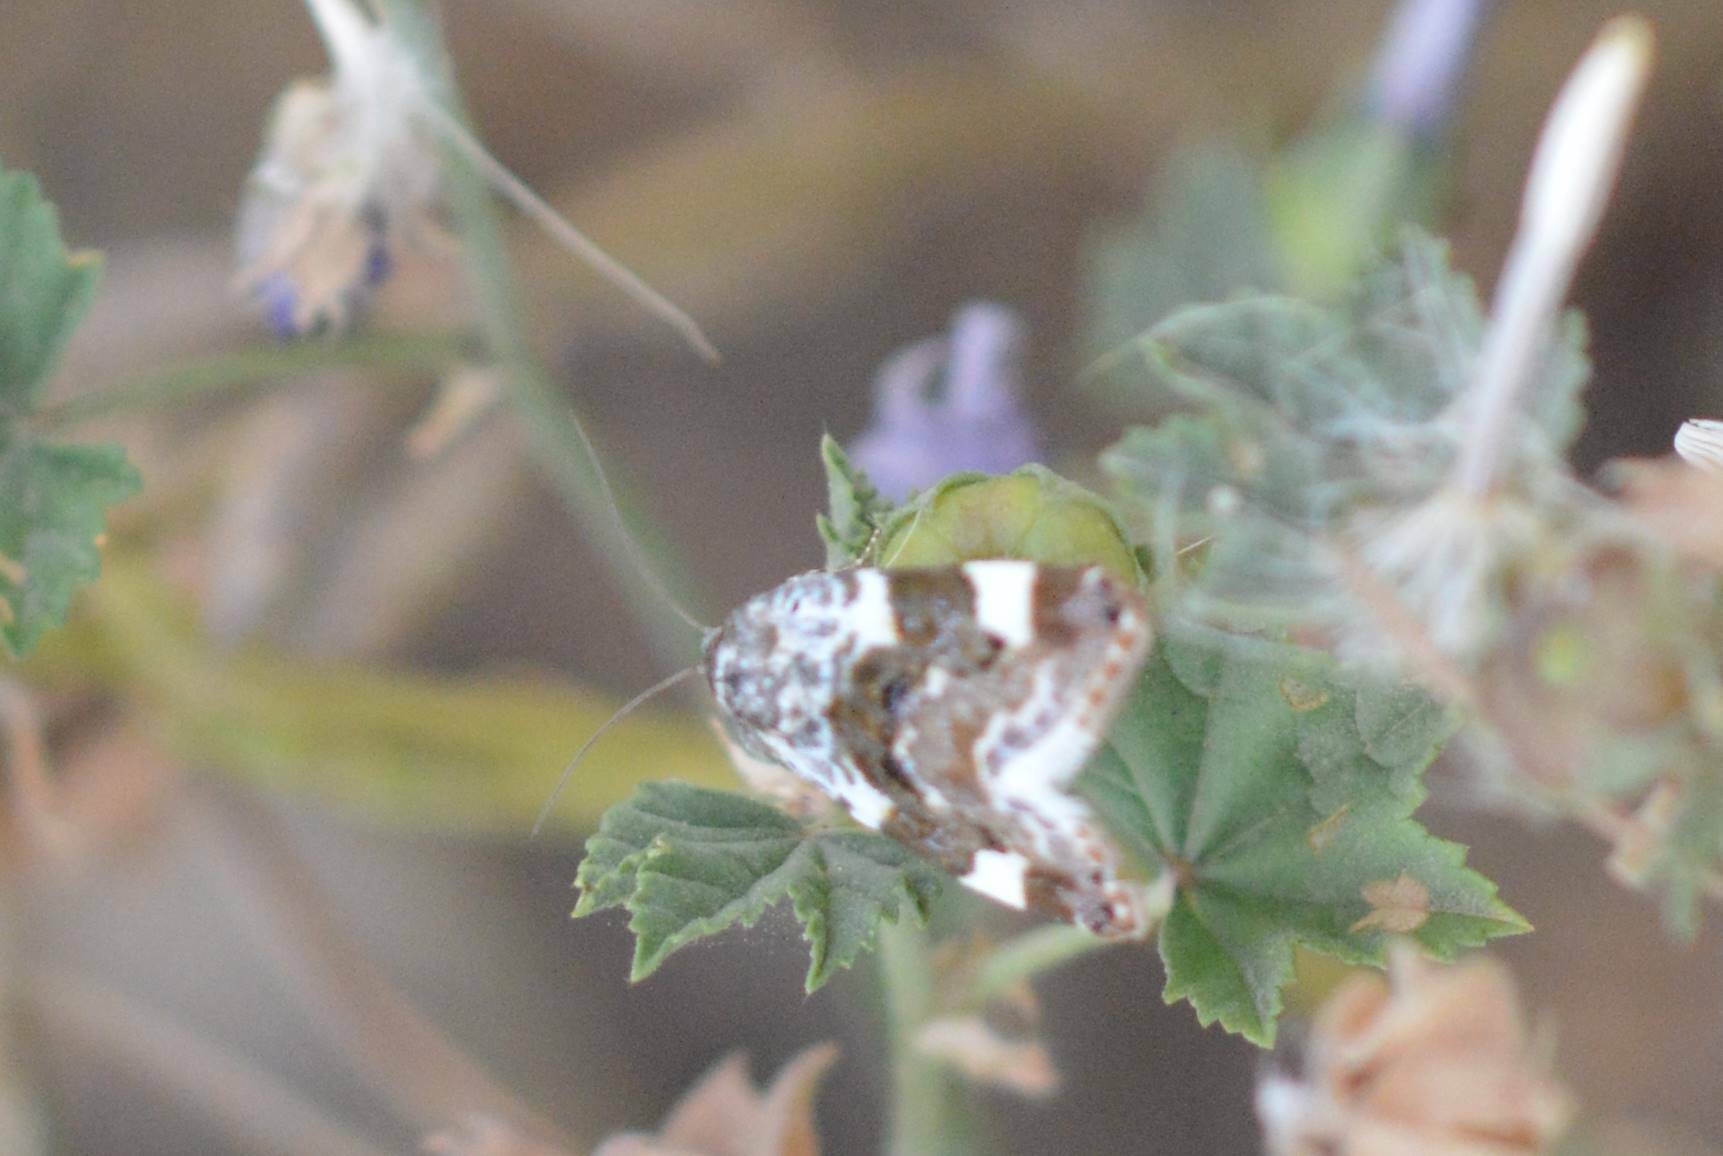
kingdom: Animalia
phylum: Arthropoda
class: Insecta
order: Lepidoptera
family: Noctuidae
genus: Acontia
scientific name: Acontia lucida
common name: Pale shoulder
